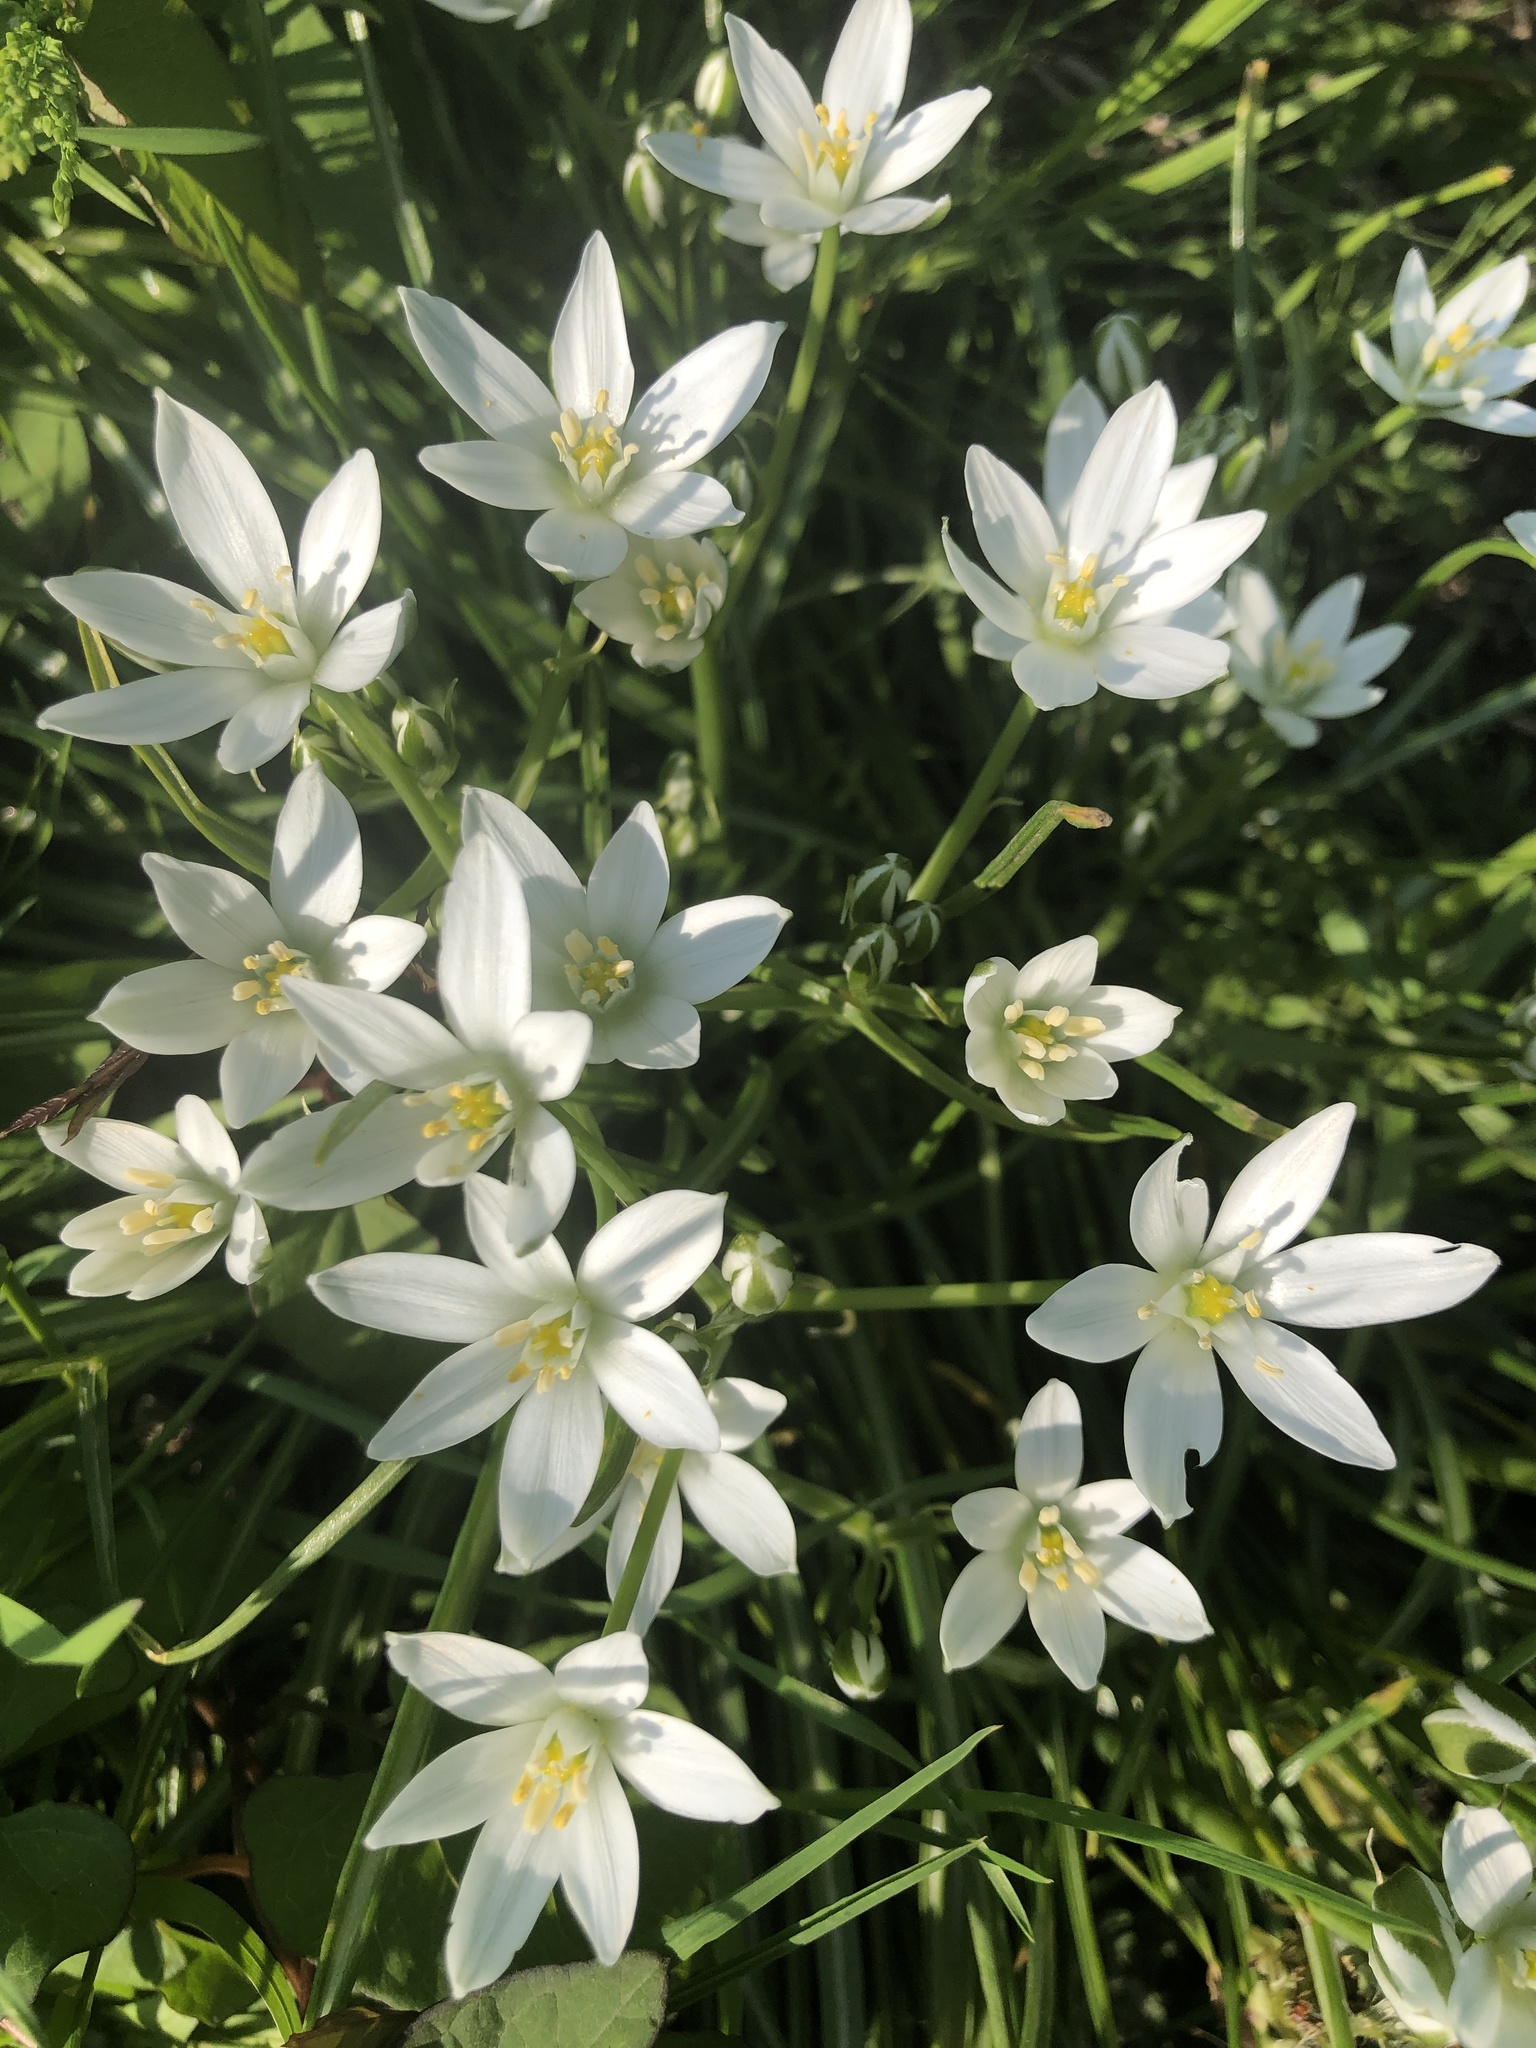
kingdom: Plantae
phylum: Tracheophyta
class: Liliopsida
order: Asparagales
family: Asparagaceae
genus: Ornithogalum
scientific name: Ornithogalum umbellatum
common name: Garden star-of-bethlehem
